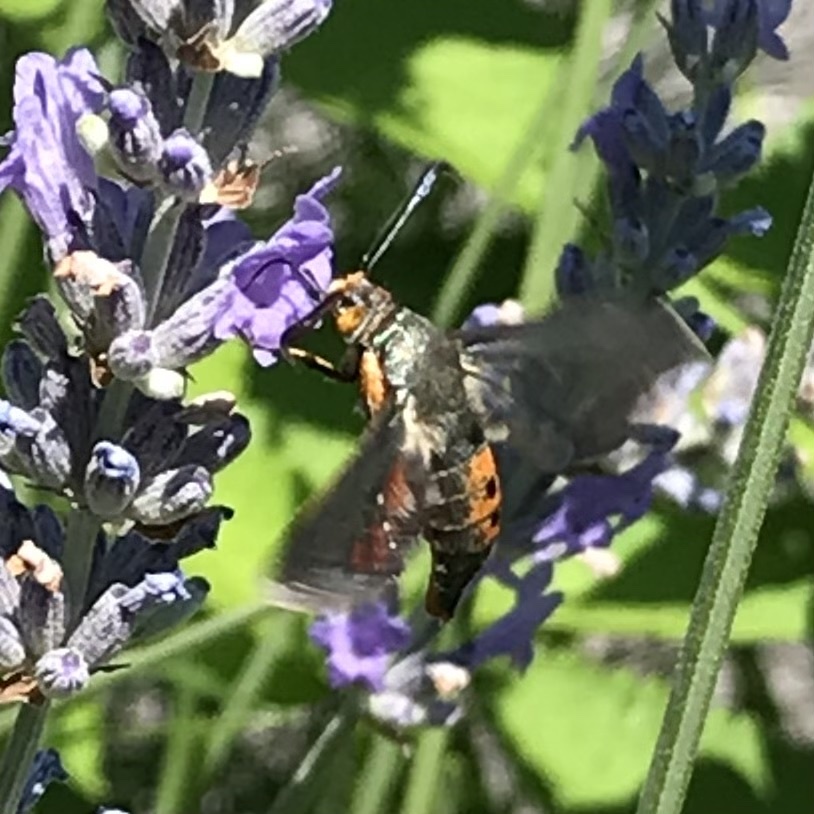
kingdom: Animalia
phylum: Arthropoda
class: Insecta
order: Lepidoptera
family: Sesiidae
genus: Eichlinia
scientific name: Eichlinia cucurbitae
